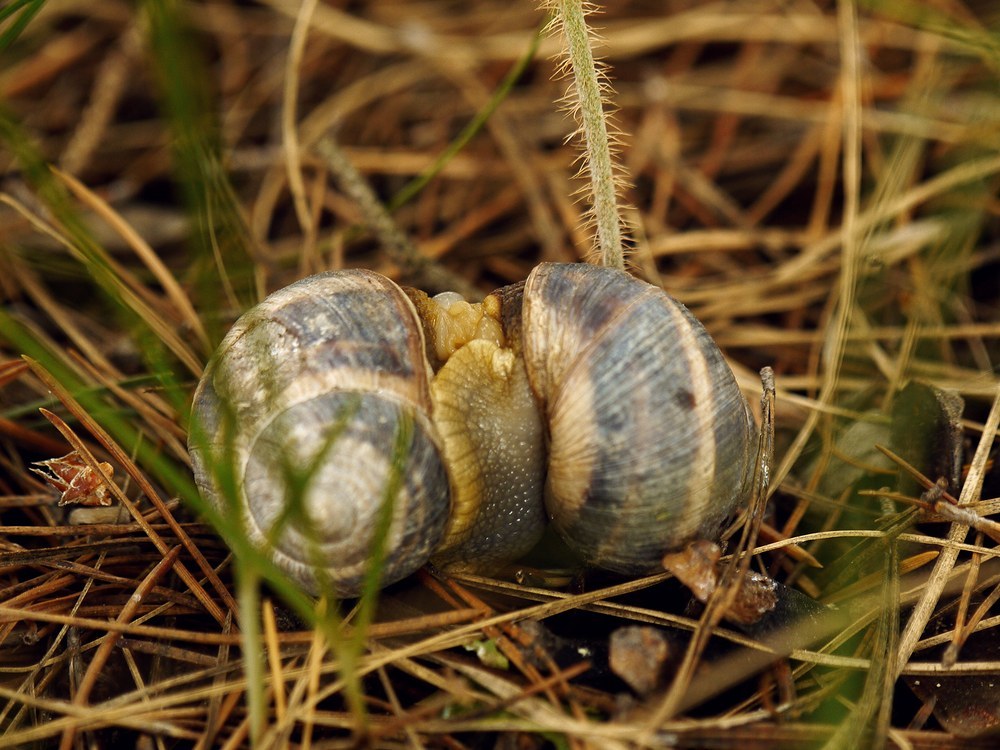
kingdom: Animalia
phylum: Mollusca
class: Gastropoda
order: Stylommatophora
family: Helicidae
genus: Helix
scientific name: Helix albescens
